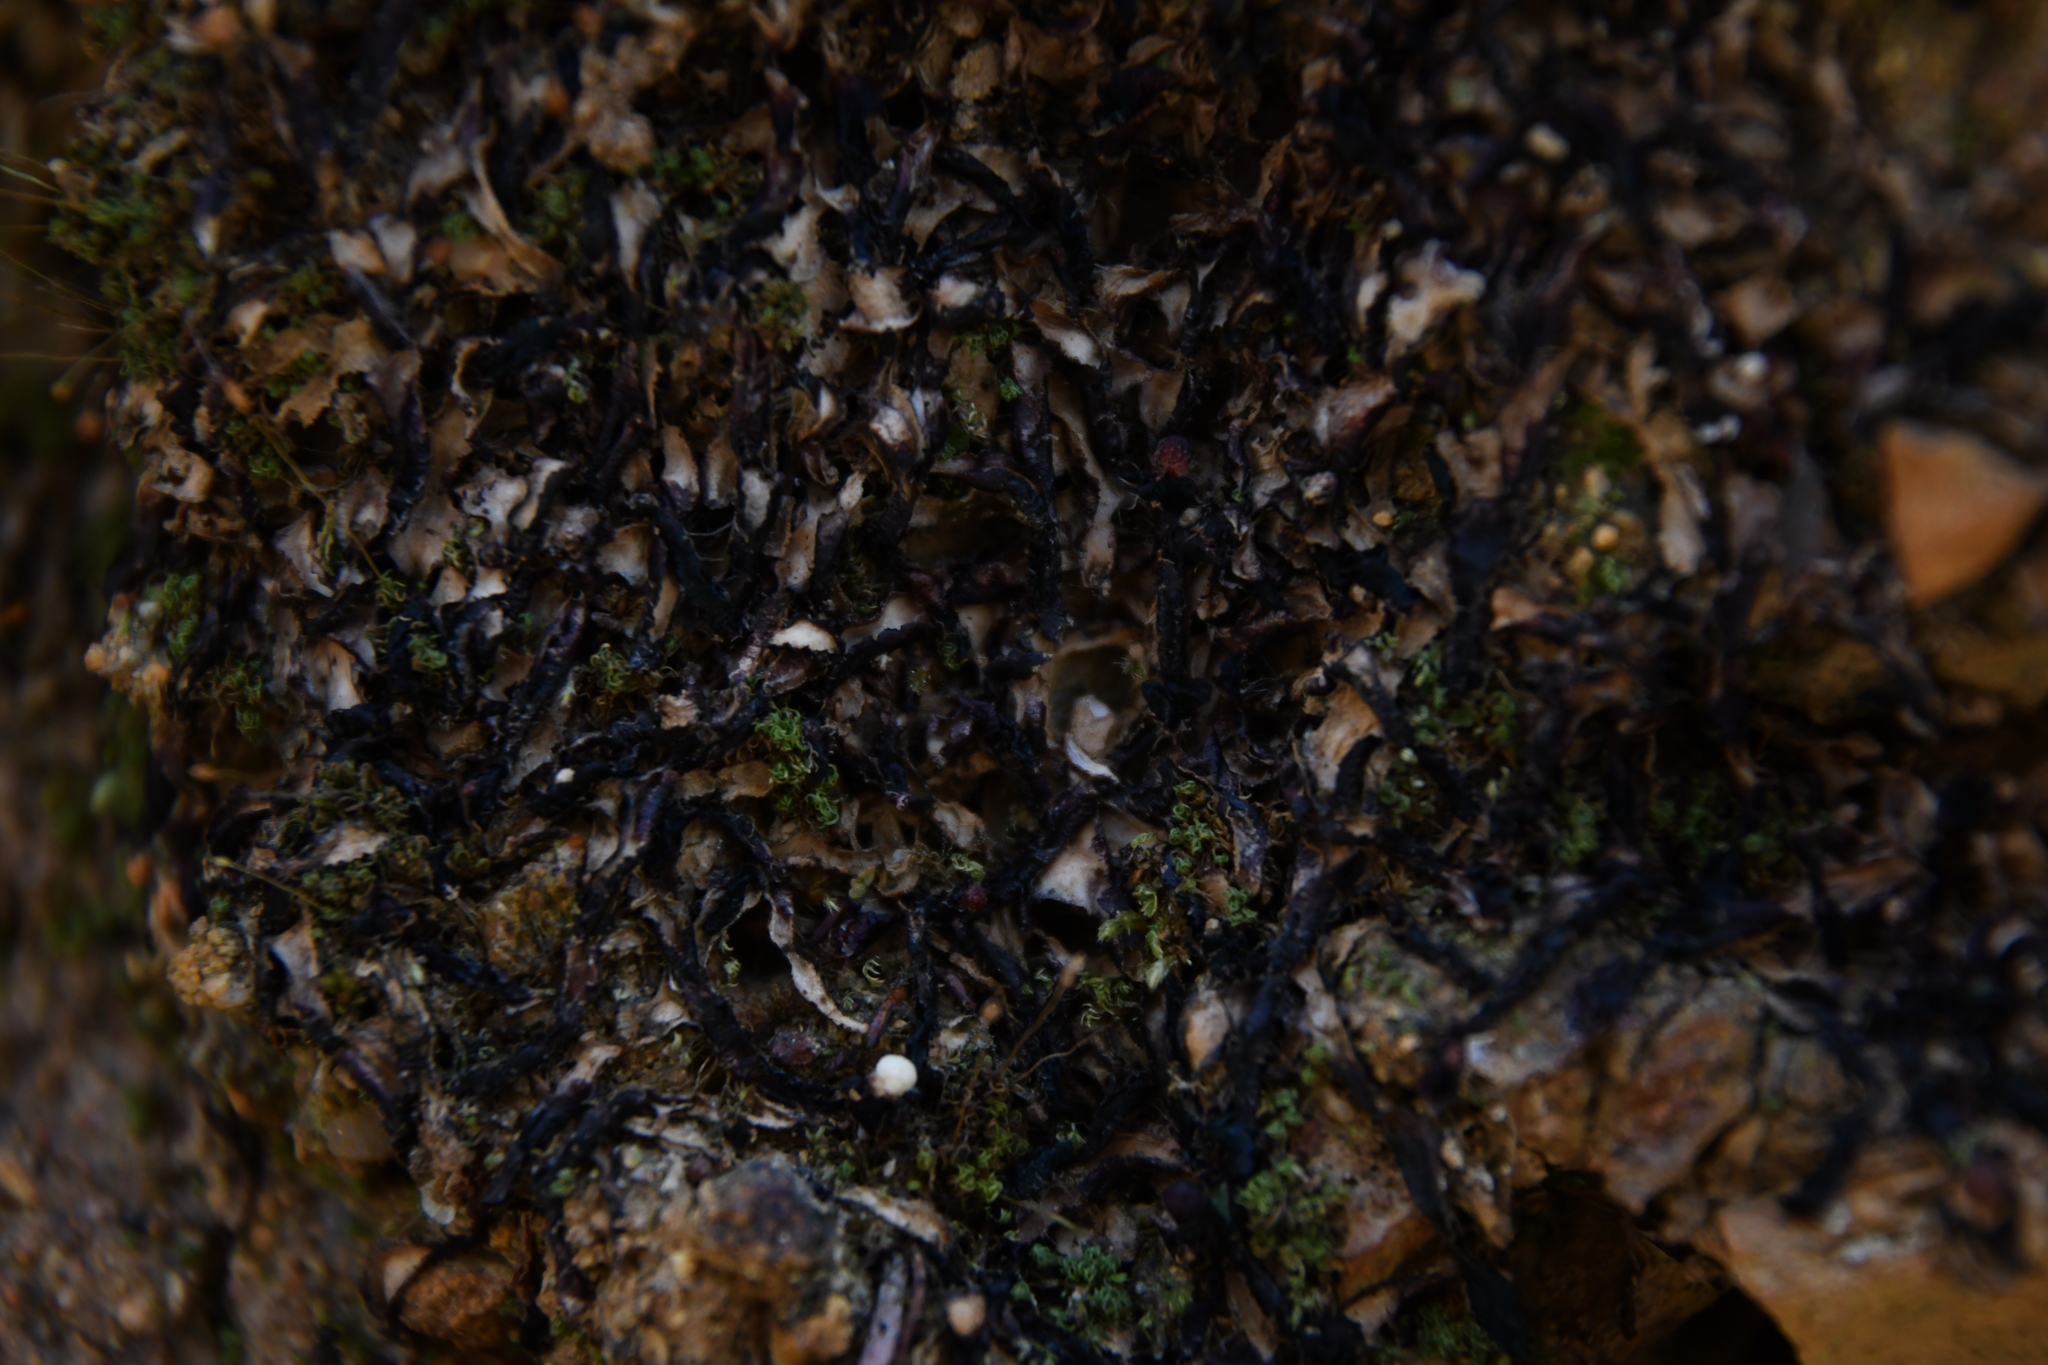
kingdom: Plantae
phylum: Marchantiophyta
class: Marchantiopsida
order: Marchantiales
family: Aytoniaceae
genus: Asterella
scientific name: Asterella drummondii
